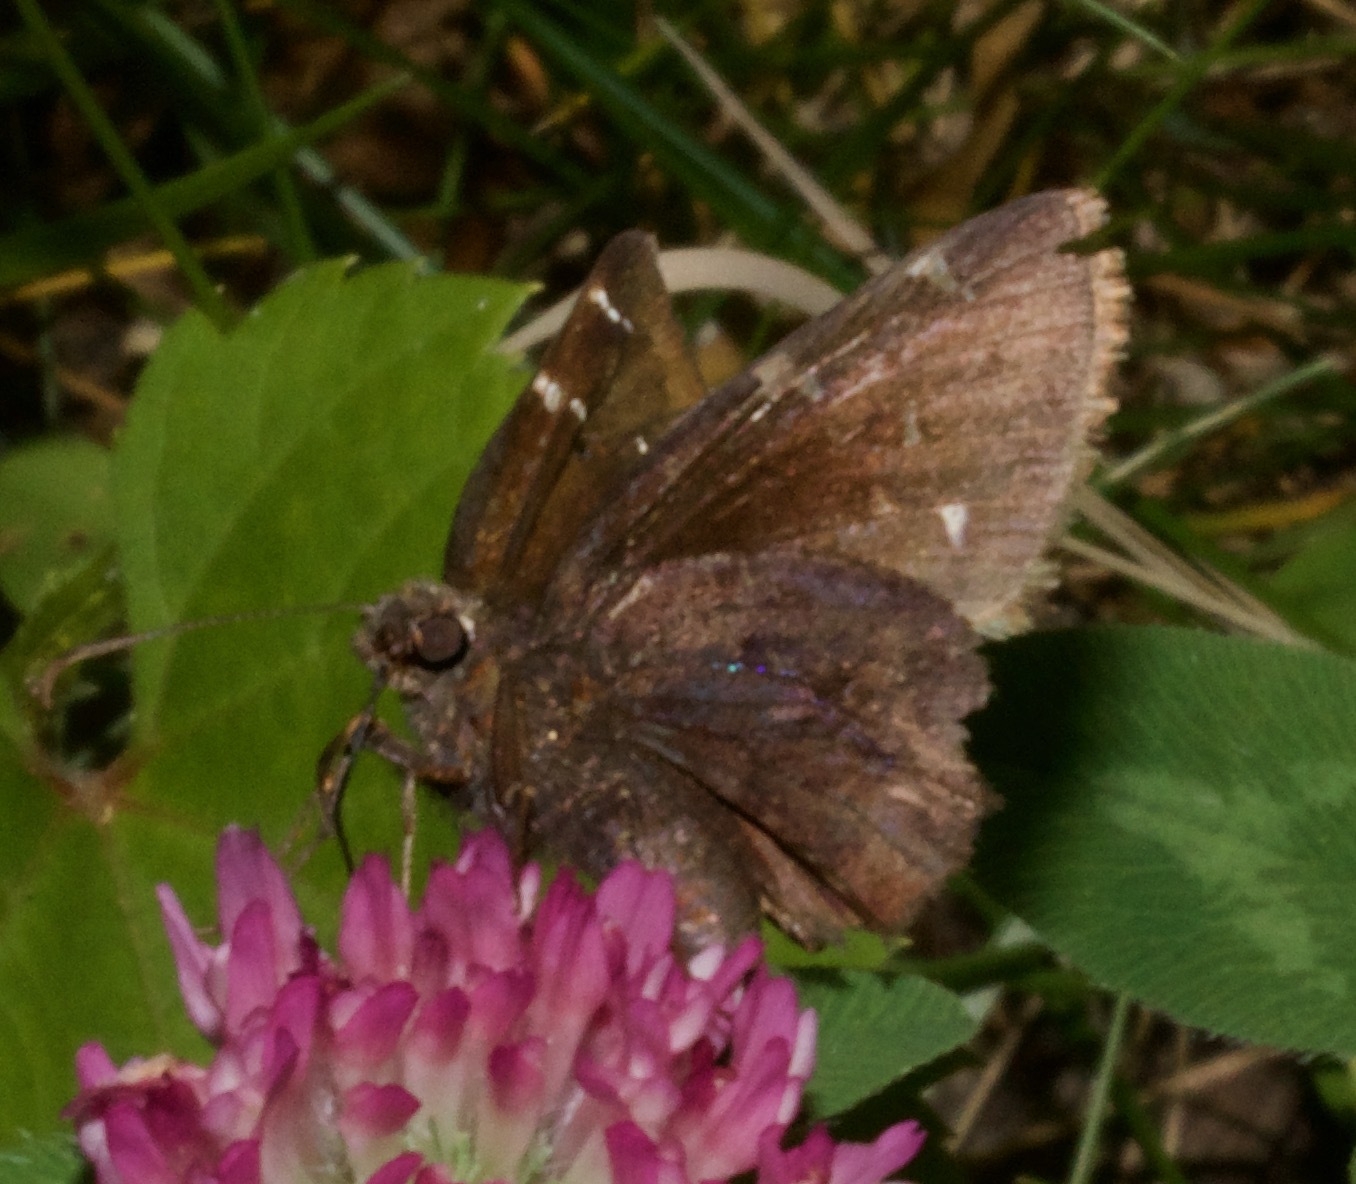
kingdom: Animalia
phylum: Arthropoda
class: Insecta
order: Lepidoptera
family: Hesperiidae
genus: Thorybes
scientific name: Thorybes pylades
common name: Northern cloudywing
